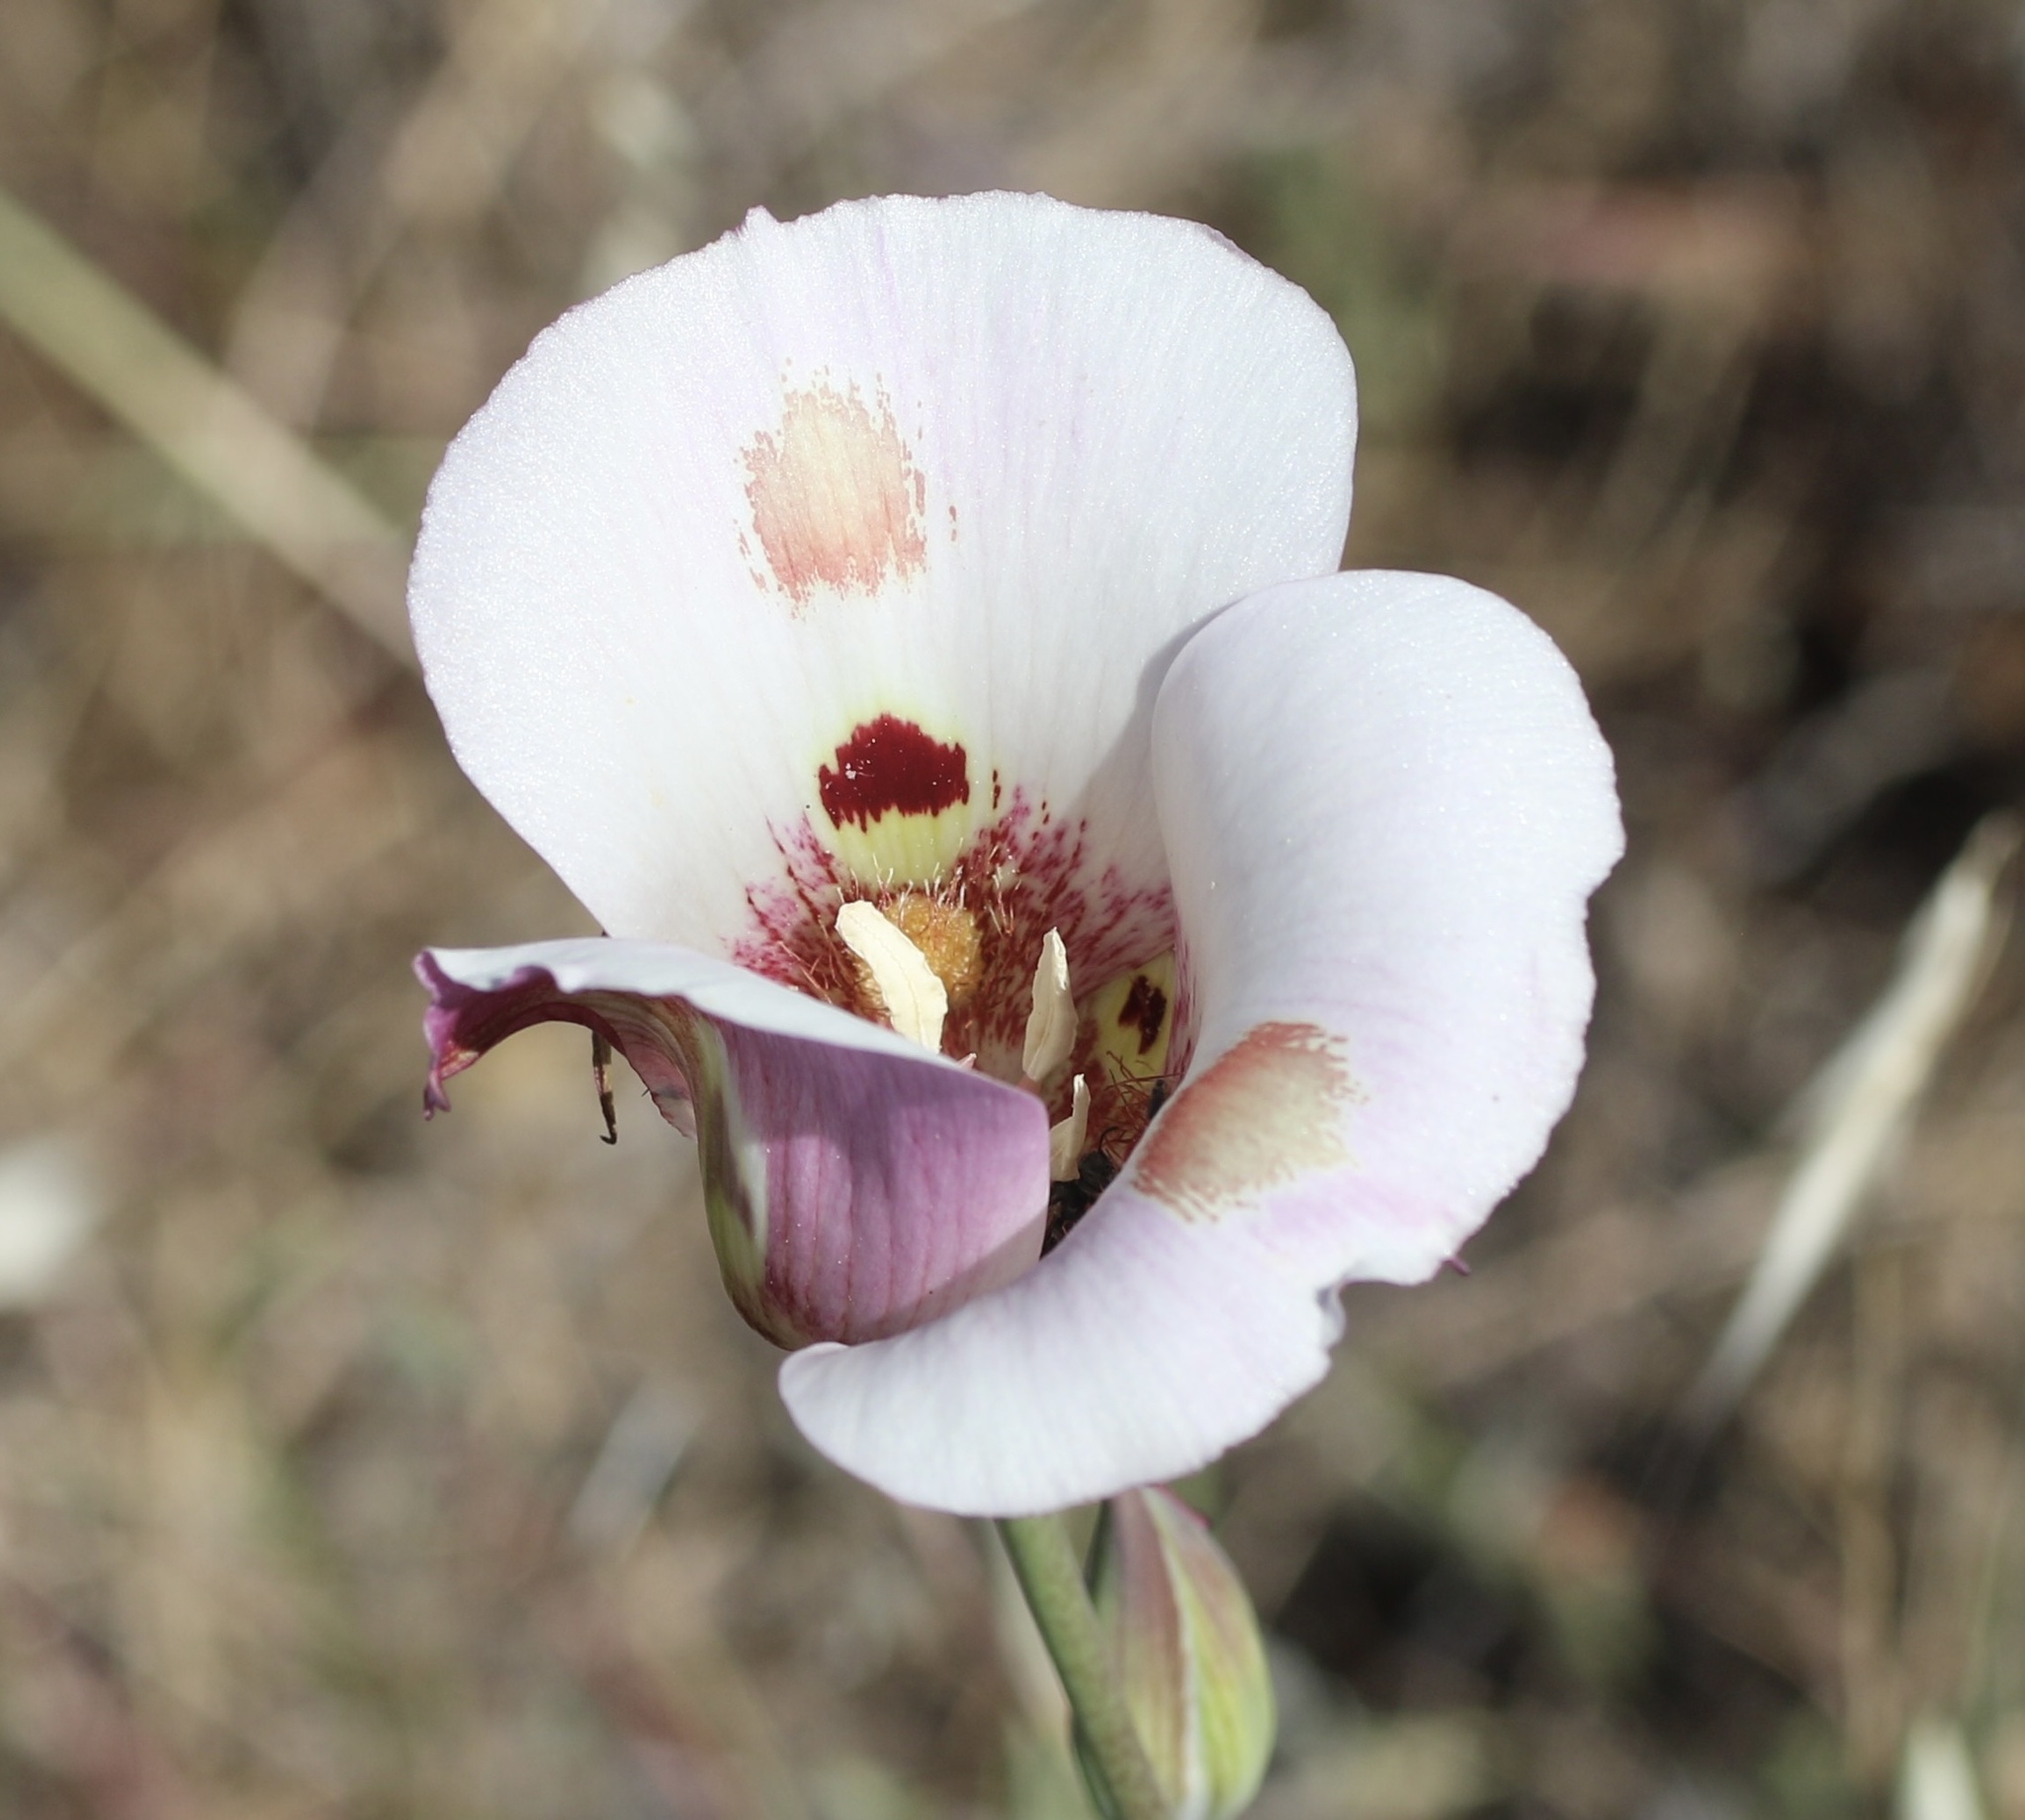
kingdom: Plantae
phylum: Tracheophyta
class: Liliopsida
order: Liliales
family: Liliaceae
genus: Calochortus
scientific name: Calochortus venustus
